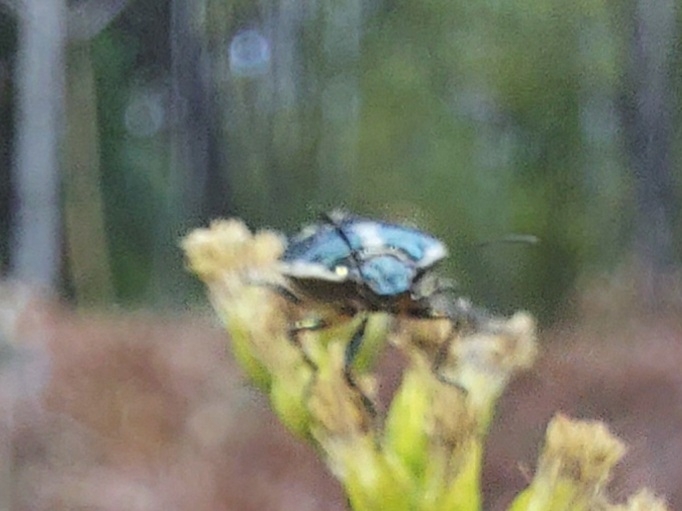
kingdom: Animalia
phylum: Arthropoda
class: Insecta
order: Hemiptera
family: Pentatomidae
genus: Eurydema
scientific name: Eurydema oleracea
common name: Cabbage bug
